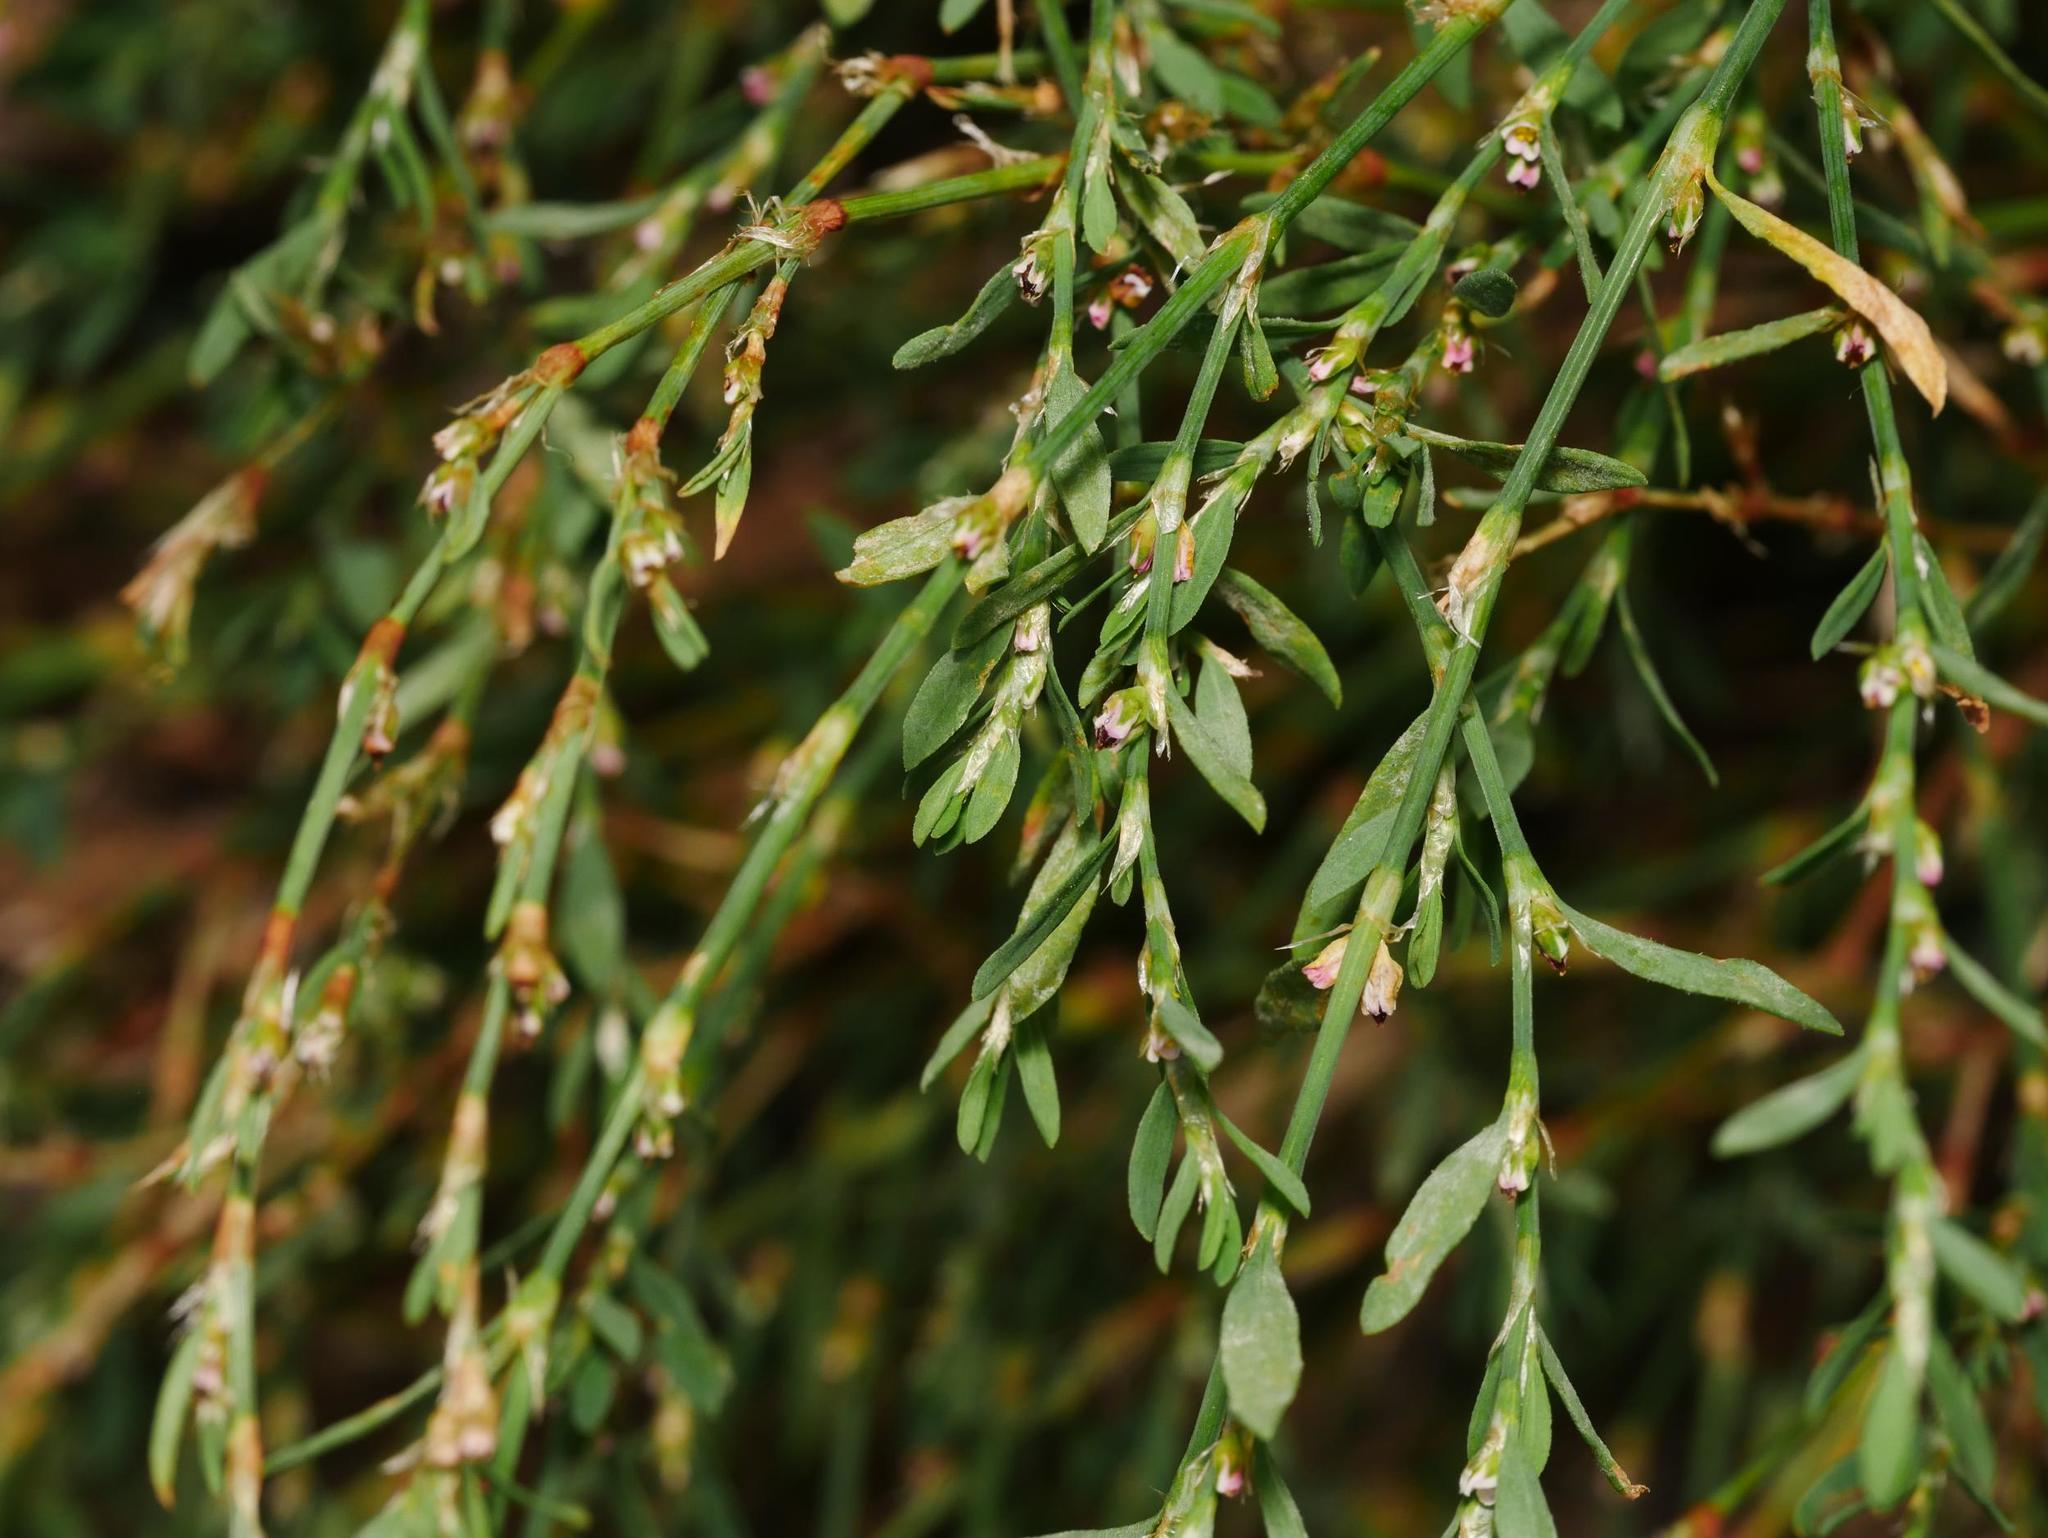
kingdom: Plantae
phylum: Tracheophyta
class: Magnoliopsida
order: Caryophyllales
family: Polygonaceae
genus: Polygonum
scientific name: Polygonum aviculare
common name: Prostrate knotweed
